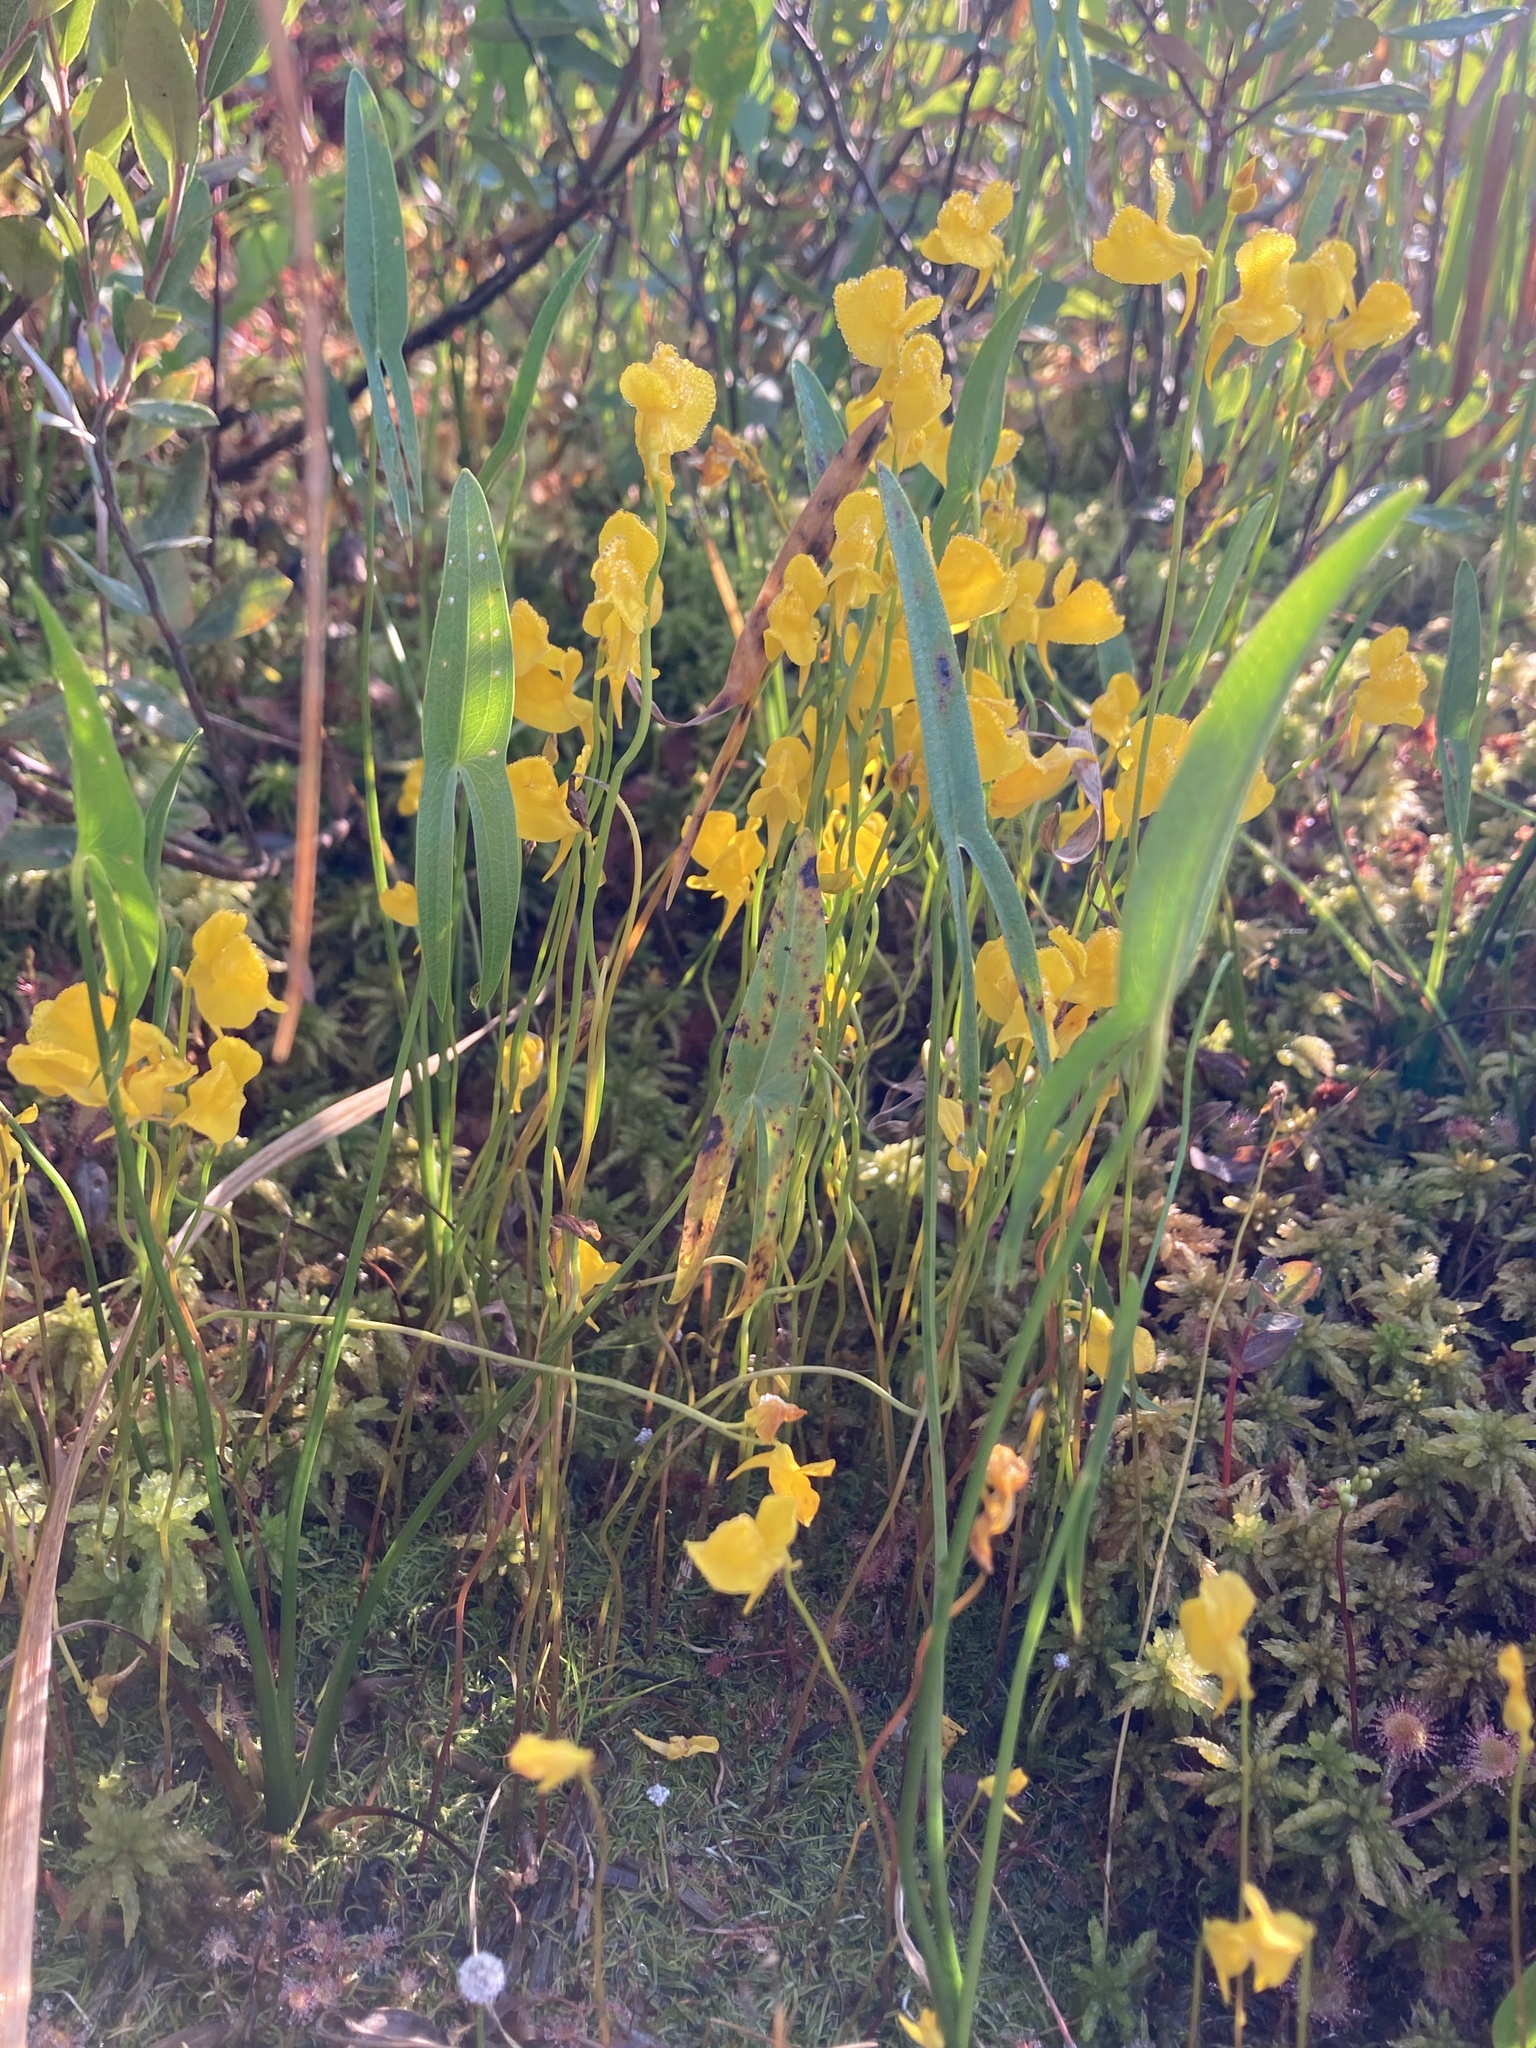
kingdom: Plantae
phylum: Tracheophyta
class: Magnoliopsida
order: Lamiales
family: Lentibulariaceae
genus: Utricularia
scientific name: Utricularia cornuta
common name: Horned bladderwort
